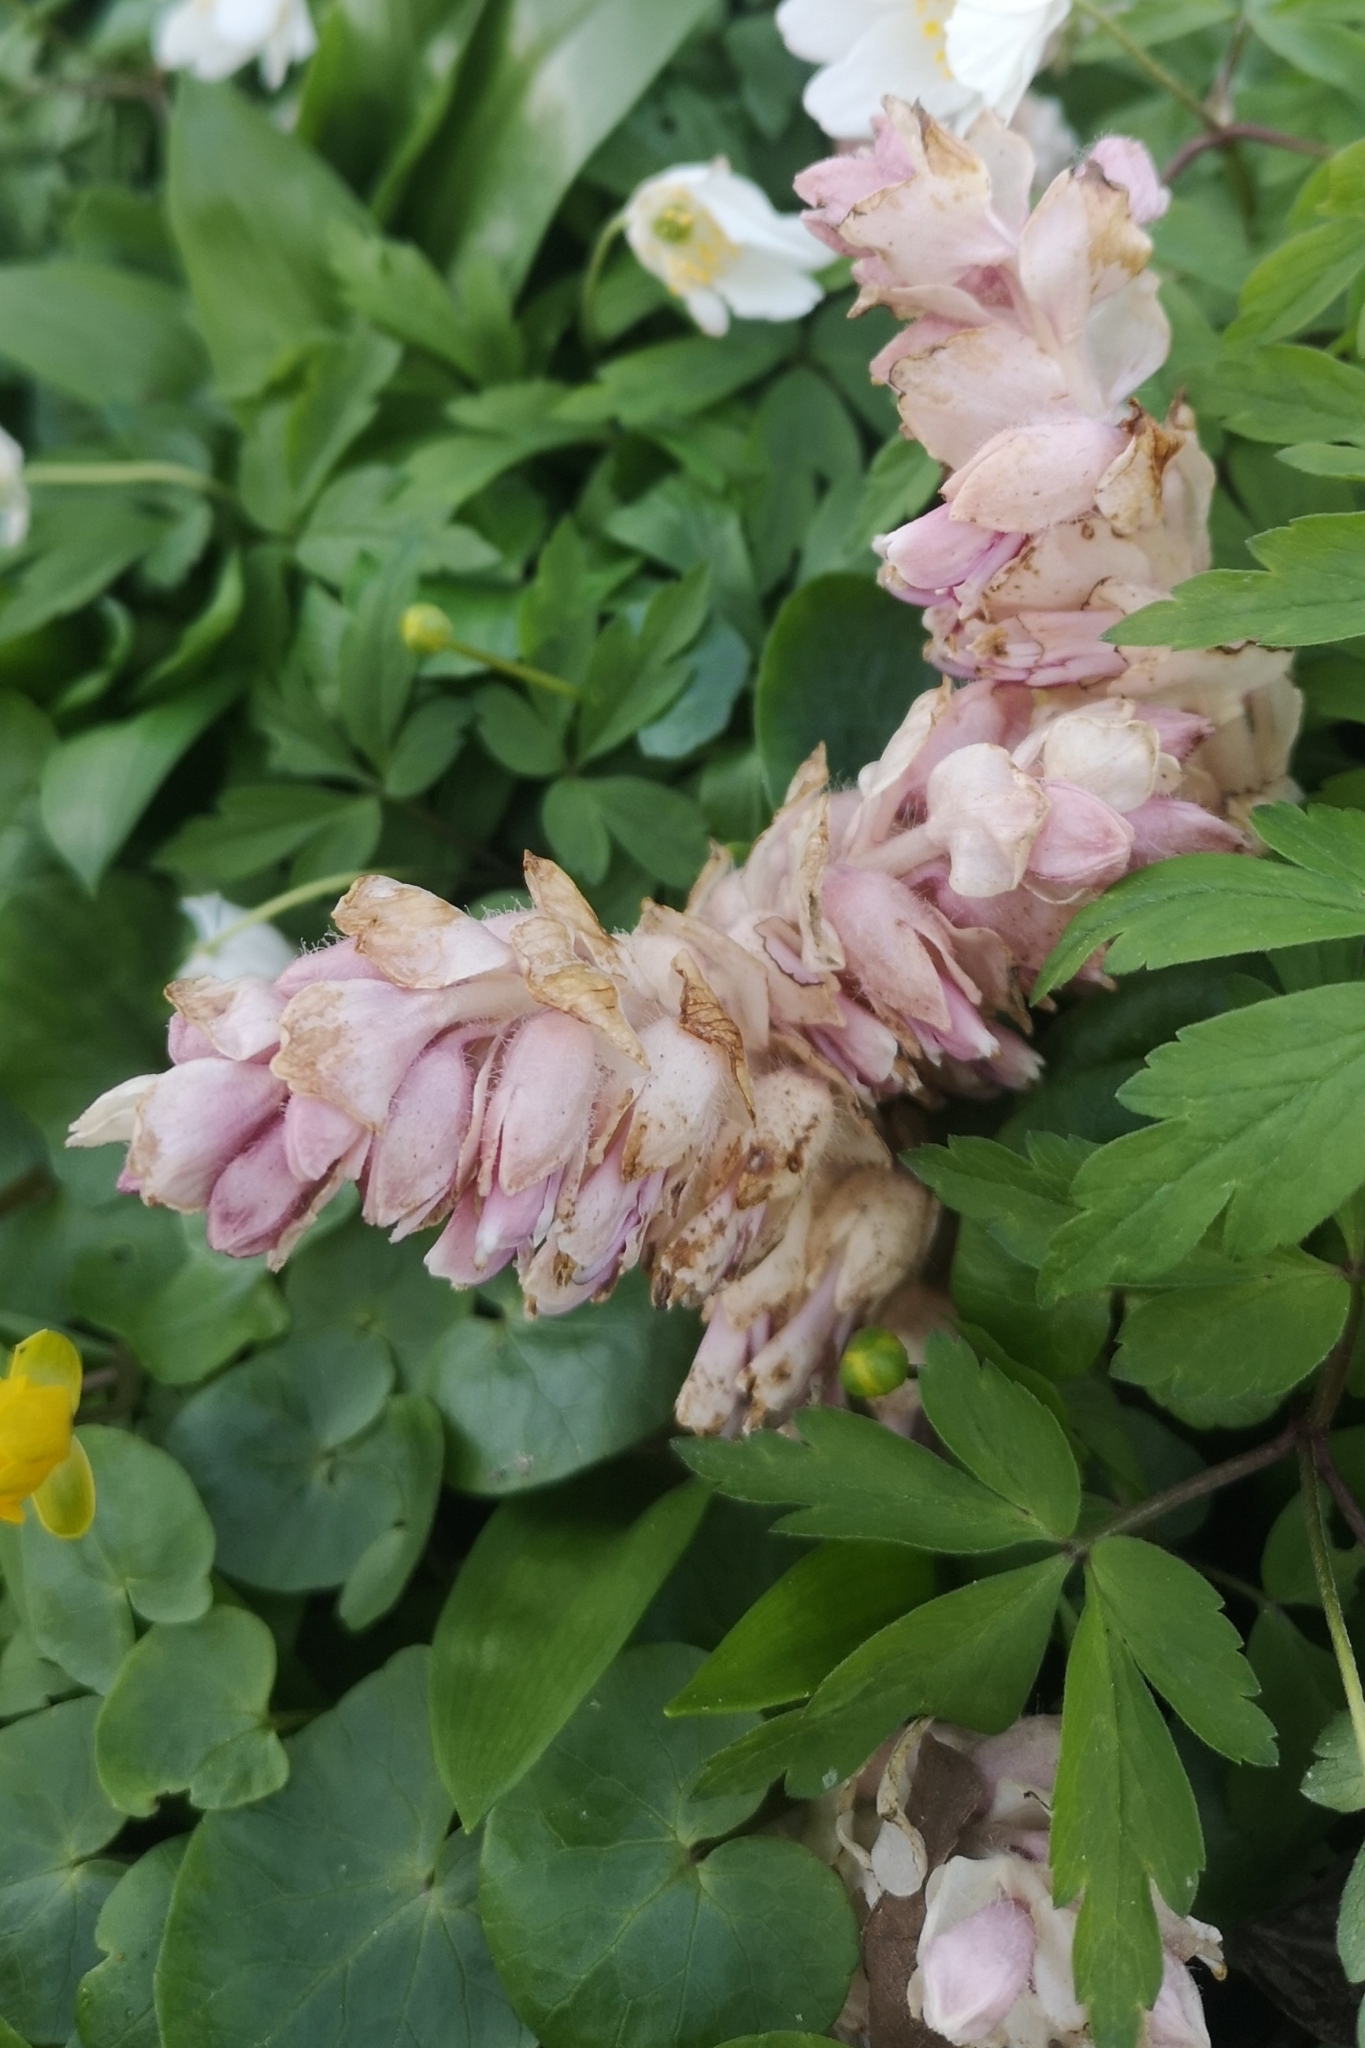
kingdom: Plantae
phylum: Tracheophyta
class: Magnoliopsida
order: Lamiales
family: Orobanchaceae
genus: Lathraea
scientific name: Lathraea squamaria
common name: Toothwort
